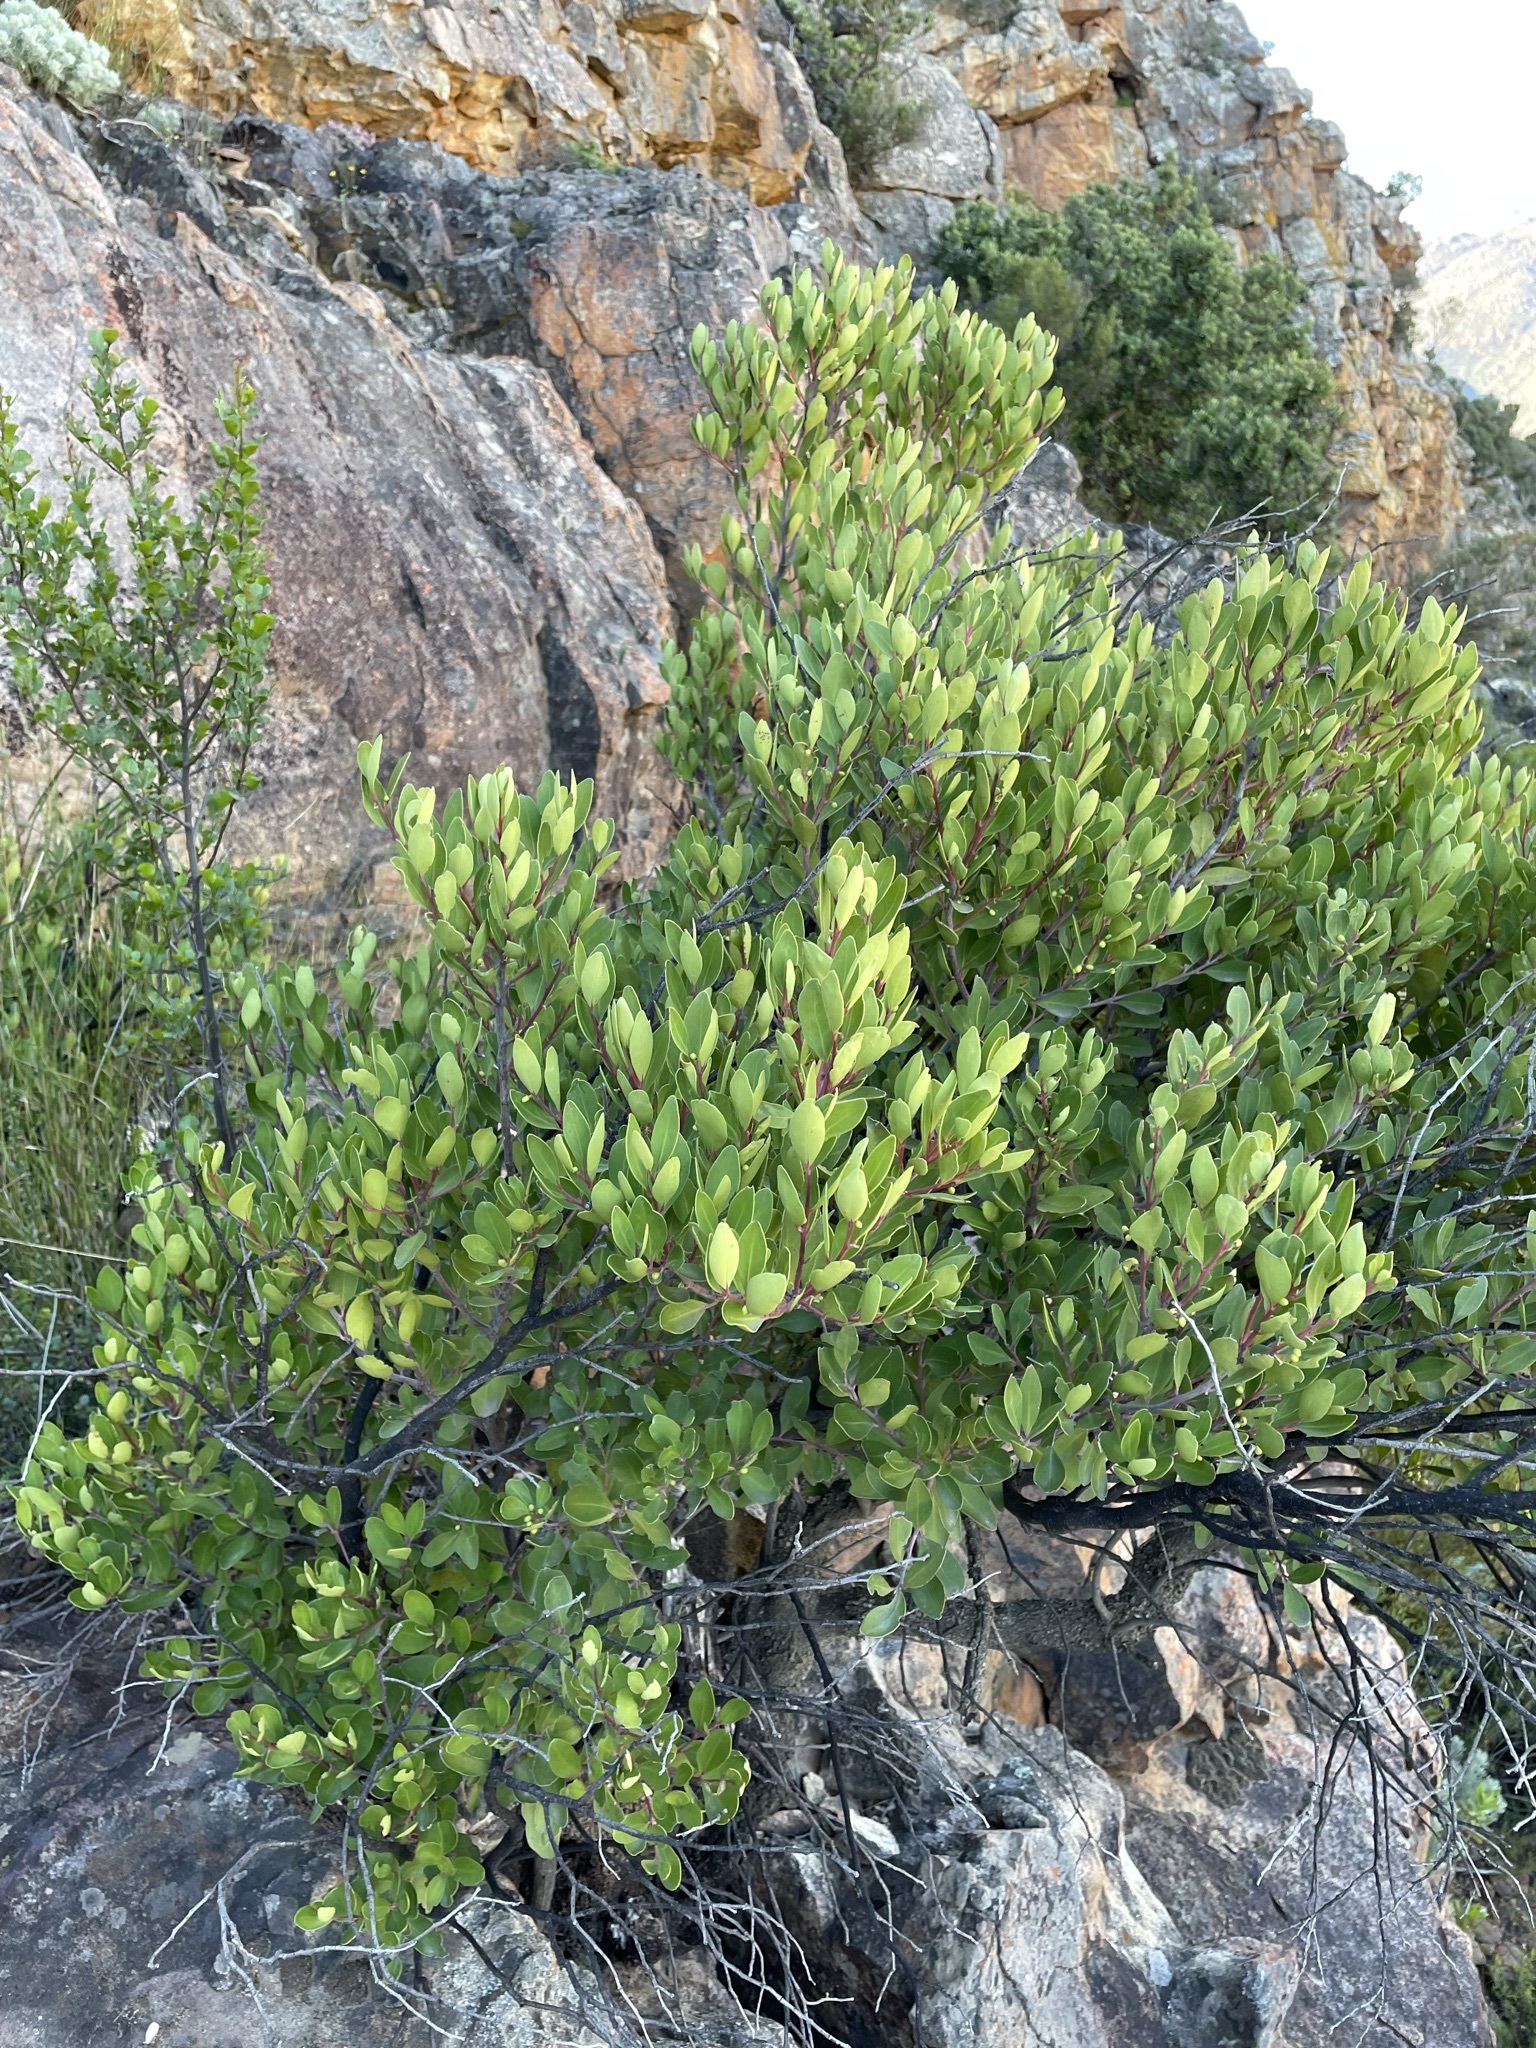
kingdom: Plantae
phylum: Tracheophyta
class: Magnoliopsida
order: Celastrales
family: Celastraceae
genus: Gymnosporia
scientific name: Gymnosporia laurina
